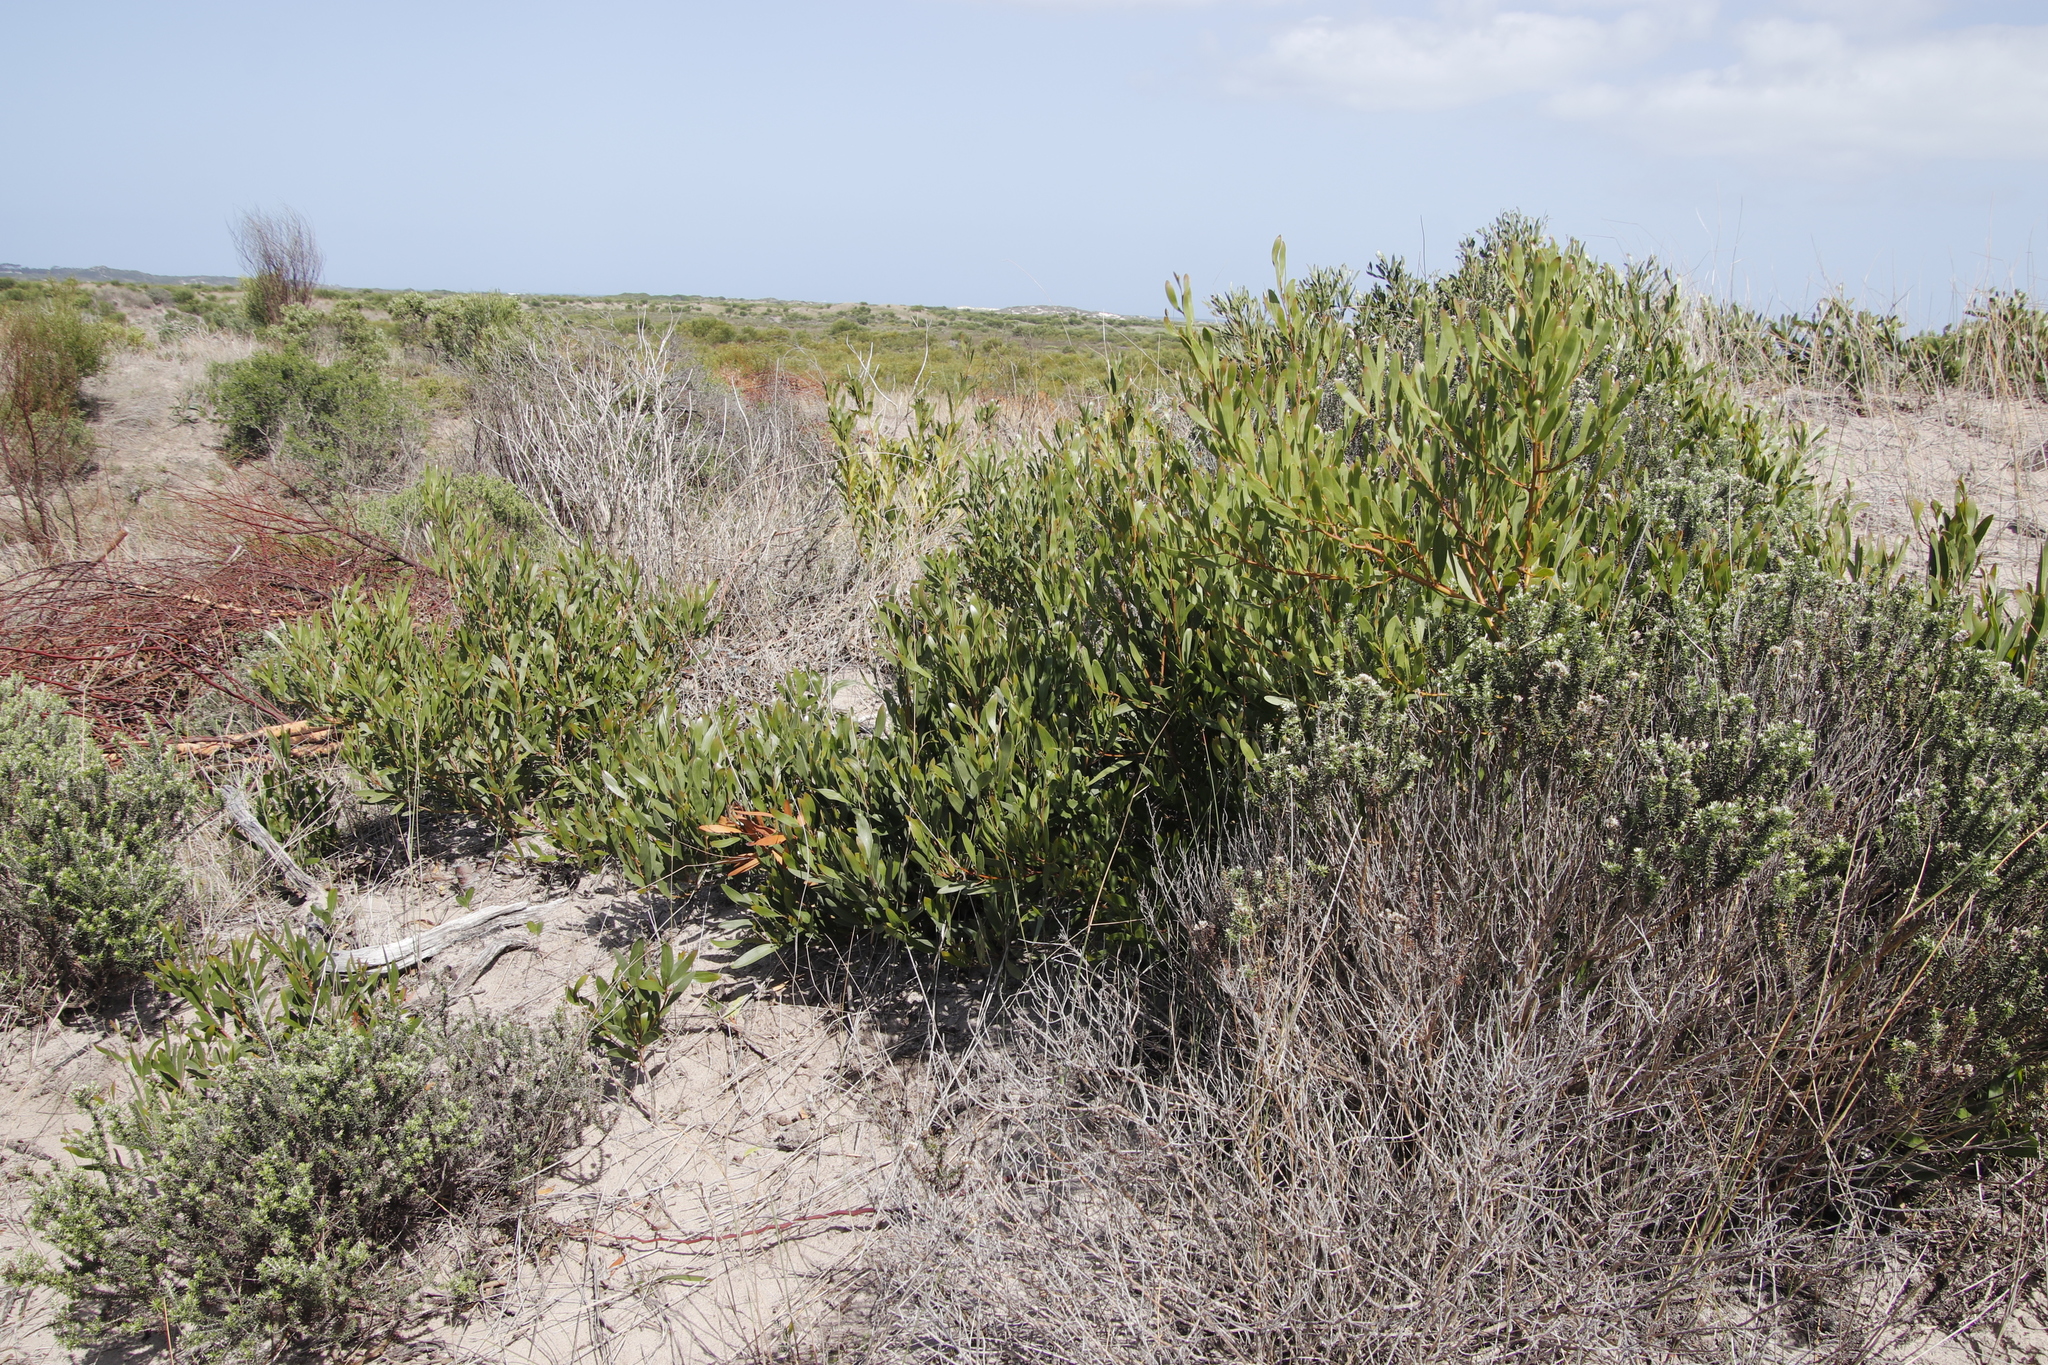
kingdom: Plantae
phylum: Tracheophyta
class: Magnoliopsida
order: Fabales
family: Fabaceae
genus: Acacia
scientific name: Acacia cyclops
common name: Coastal wattle
